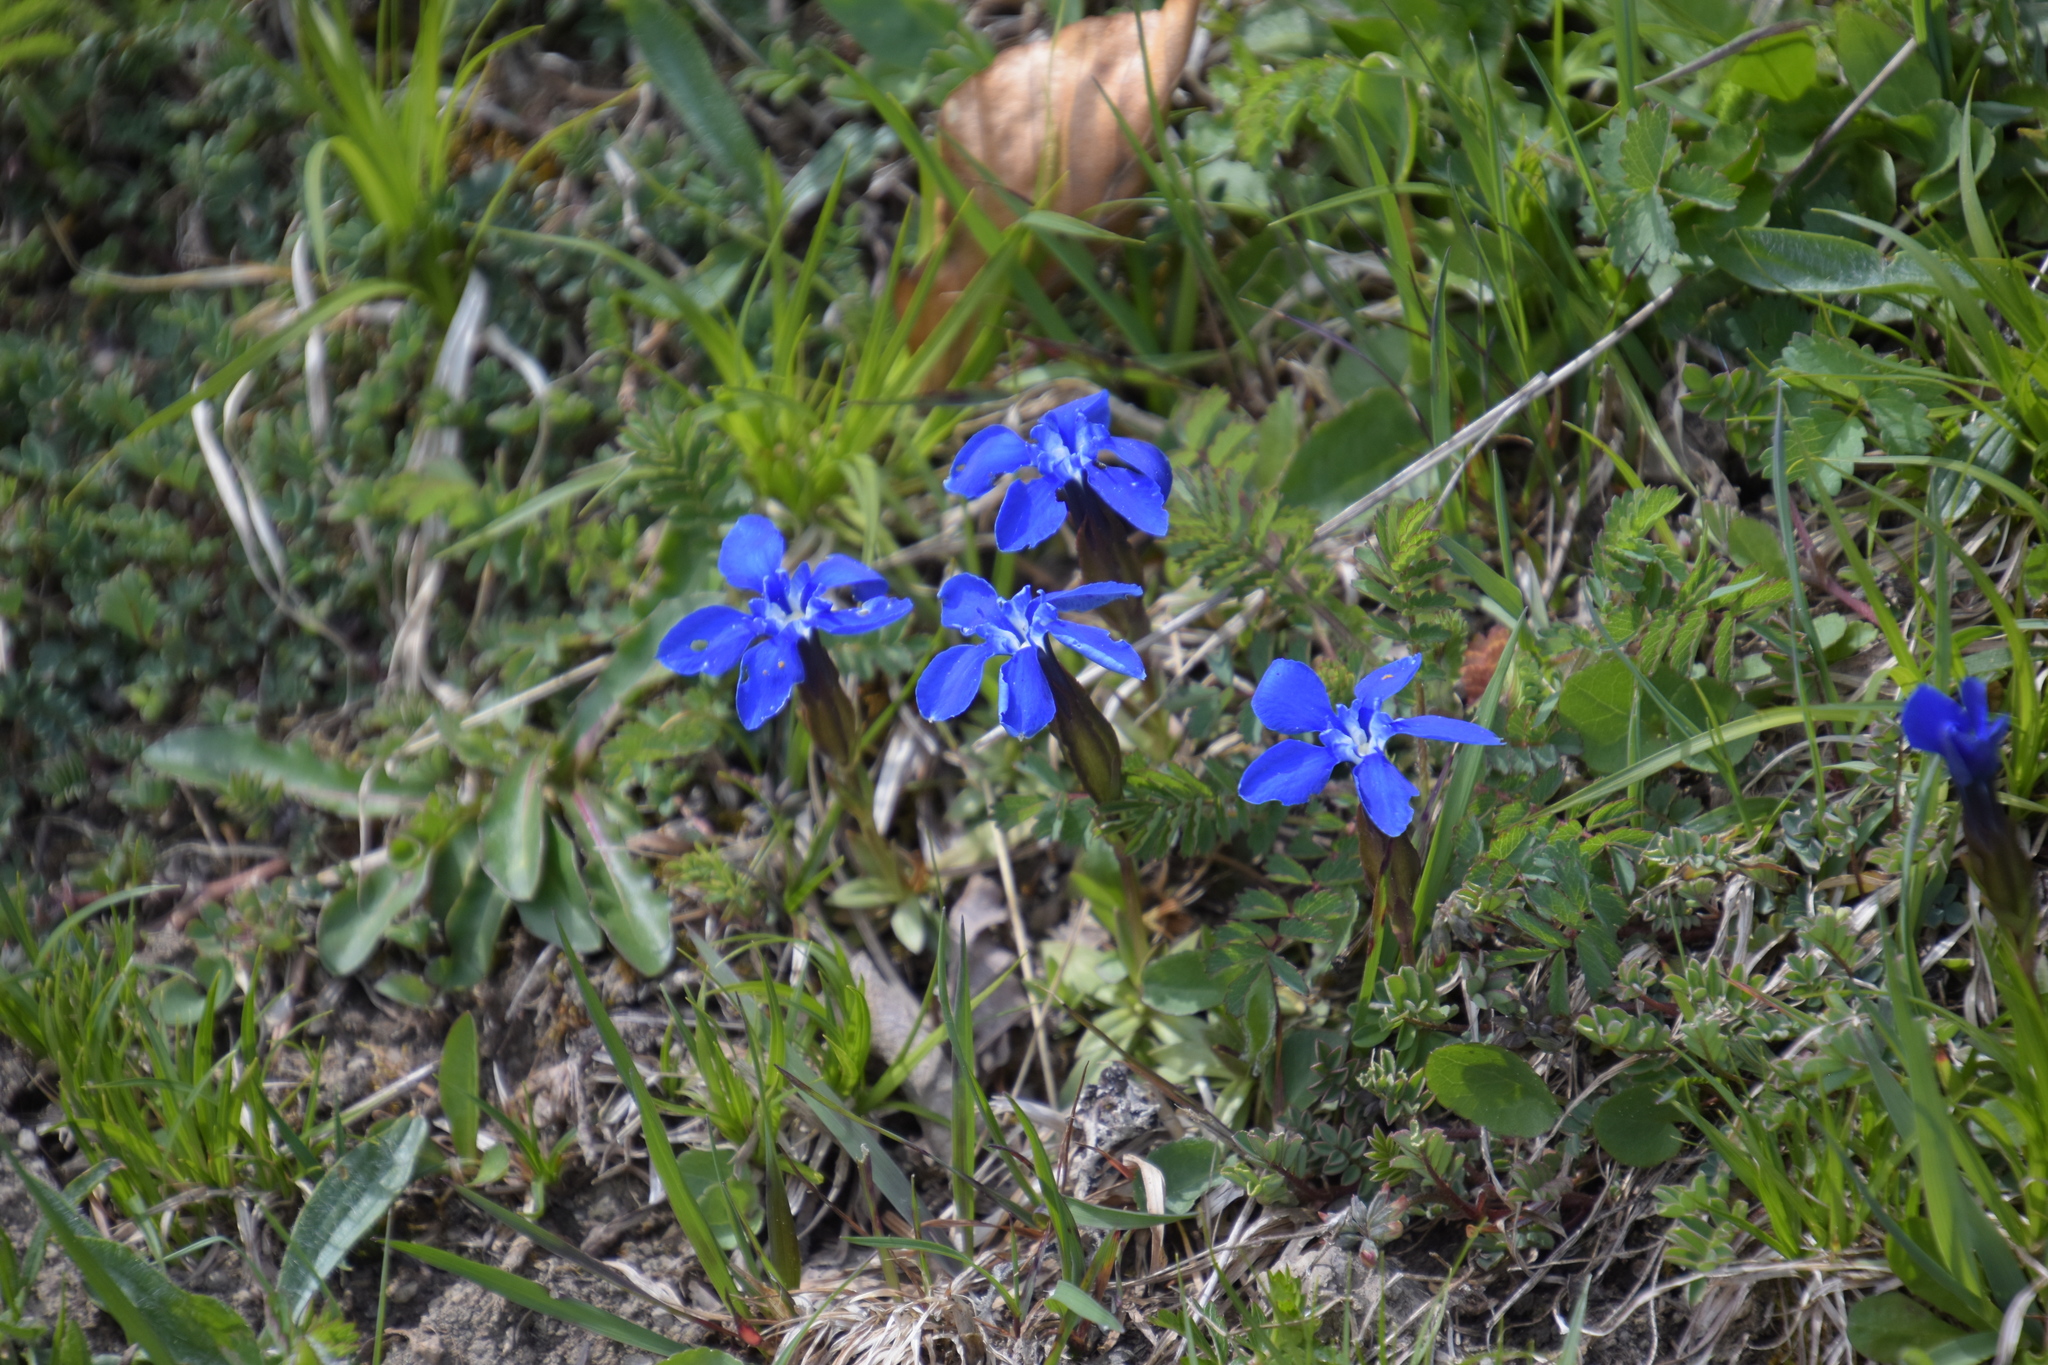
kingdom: Plantae
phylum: Tracheophyta
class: Magnoliopsida
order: Gentianales
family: Gentianaceae
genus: Gentiana
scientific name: Gentiana verna
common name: Spring gentian
